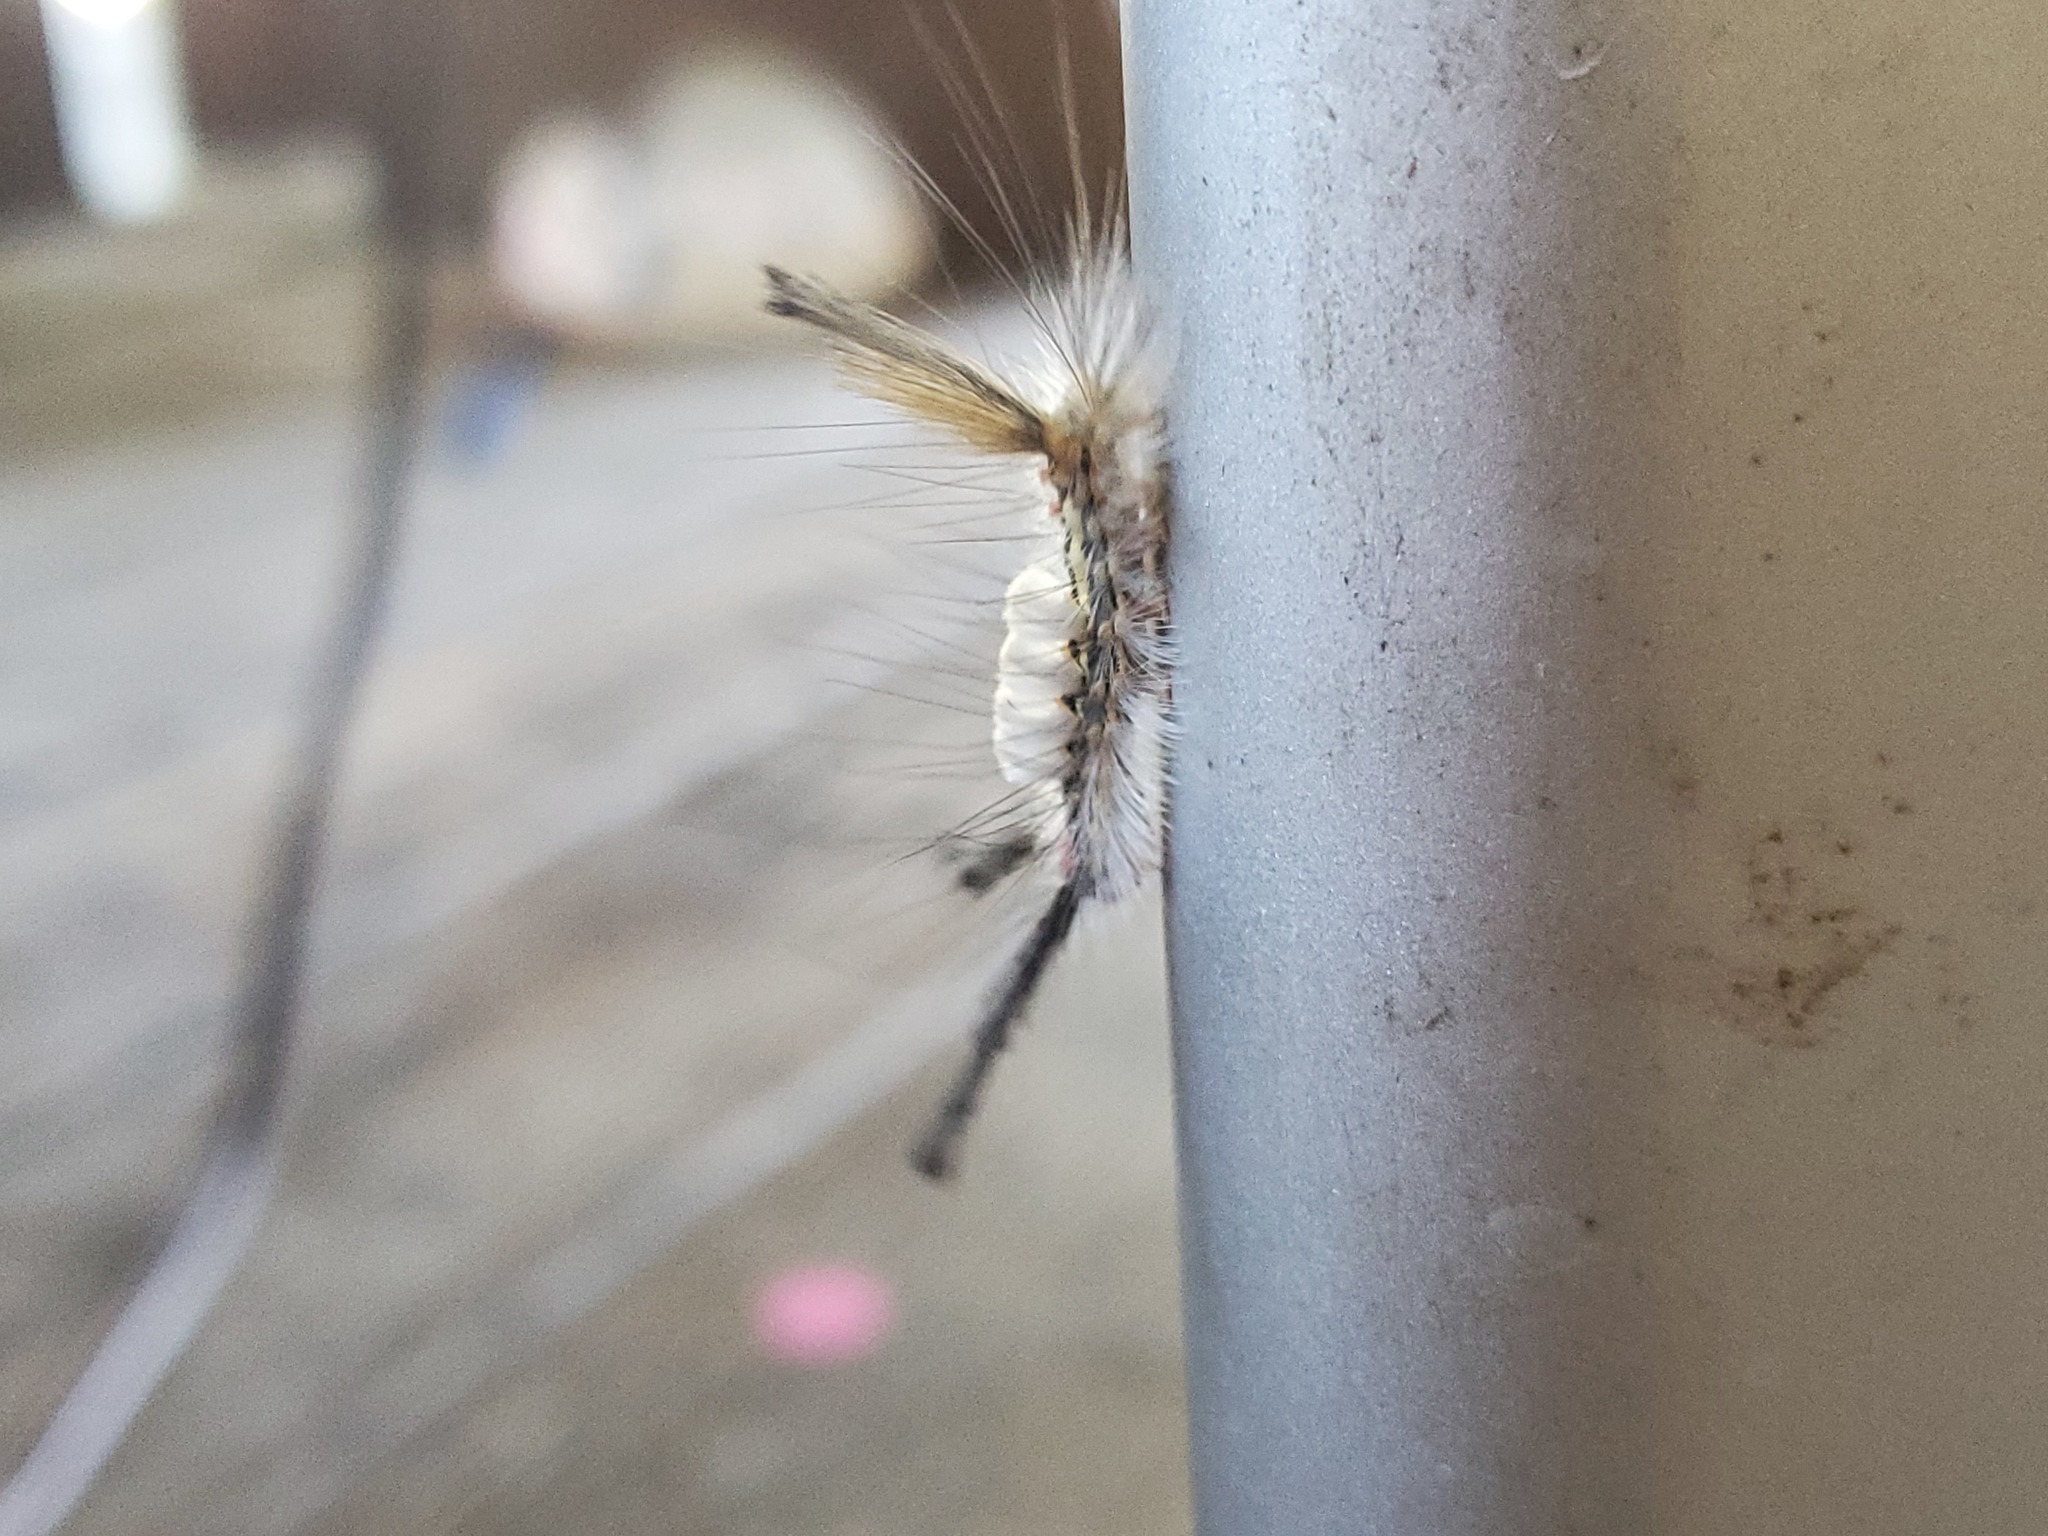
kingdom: Animalia
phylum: Arthropoda
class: Insecta
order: Lepidoptera
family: Erebidae
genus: Orgyia
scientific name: Orgyia leucostigma
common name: White-marked tussock moth
